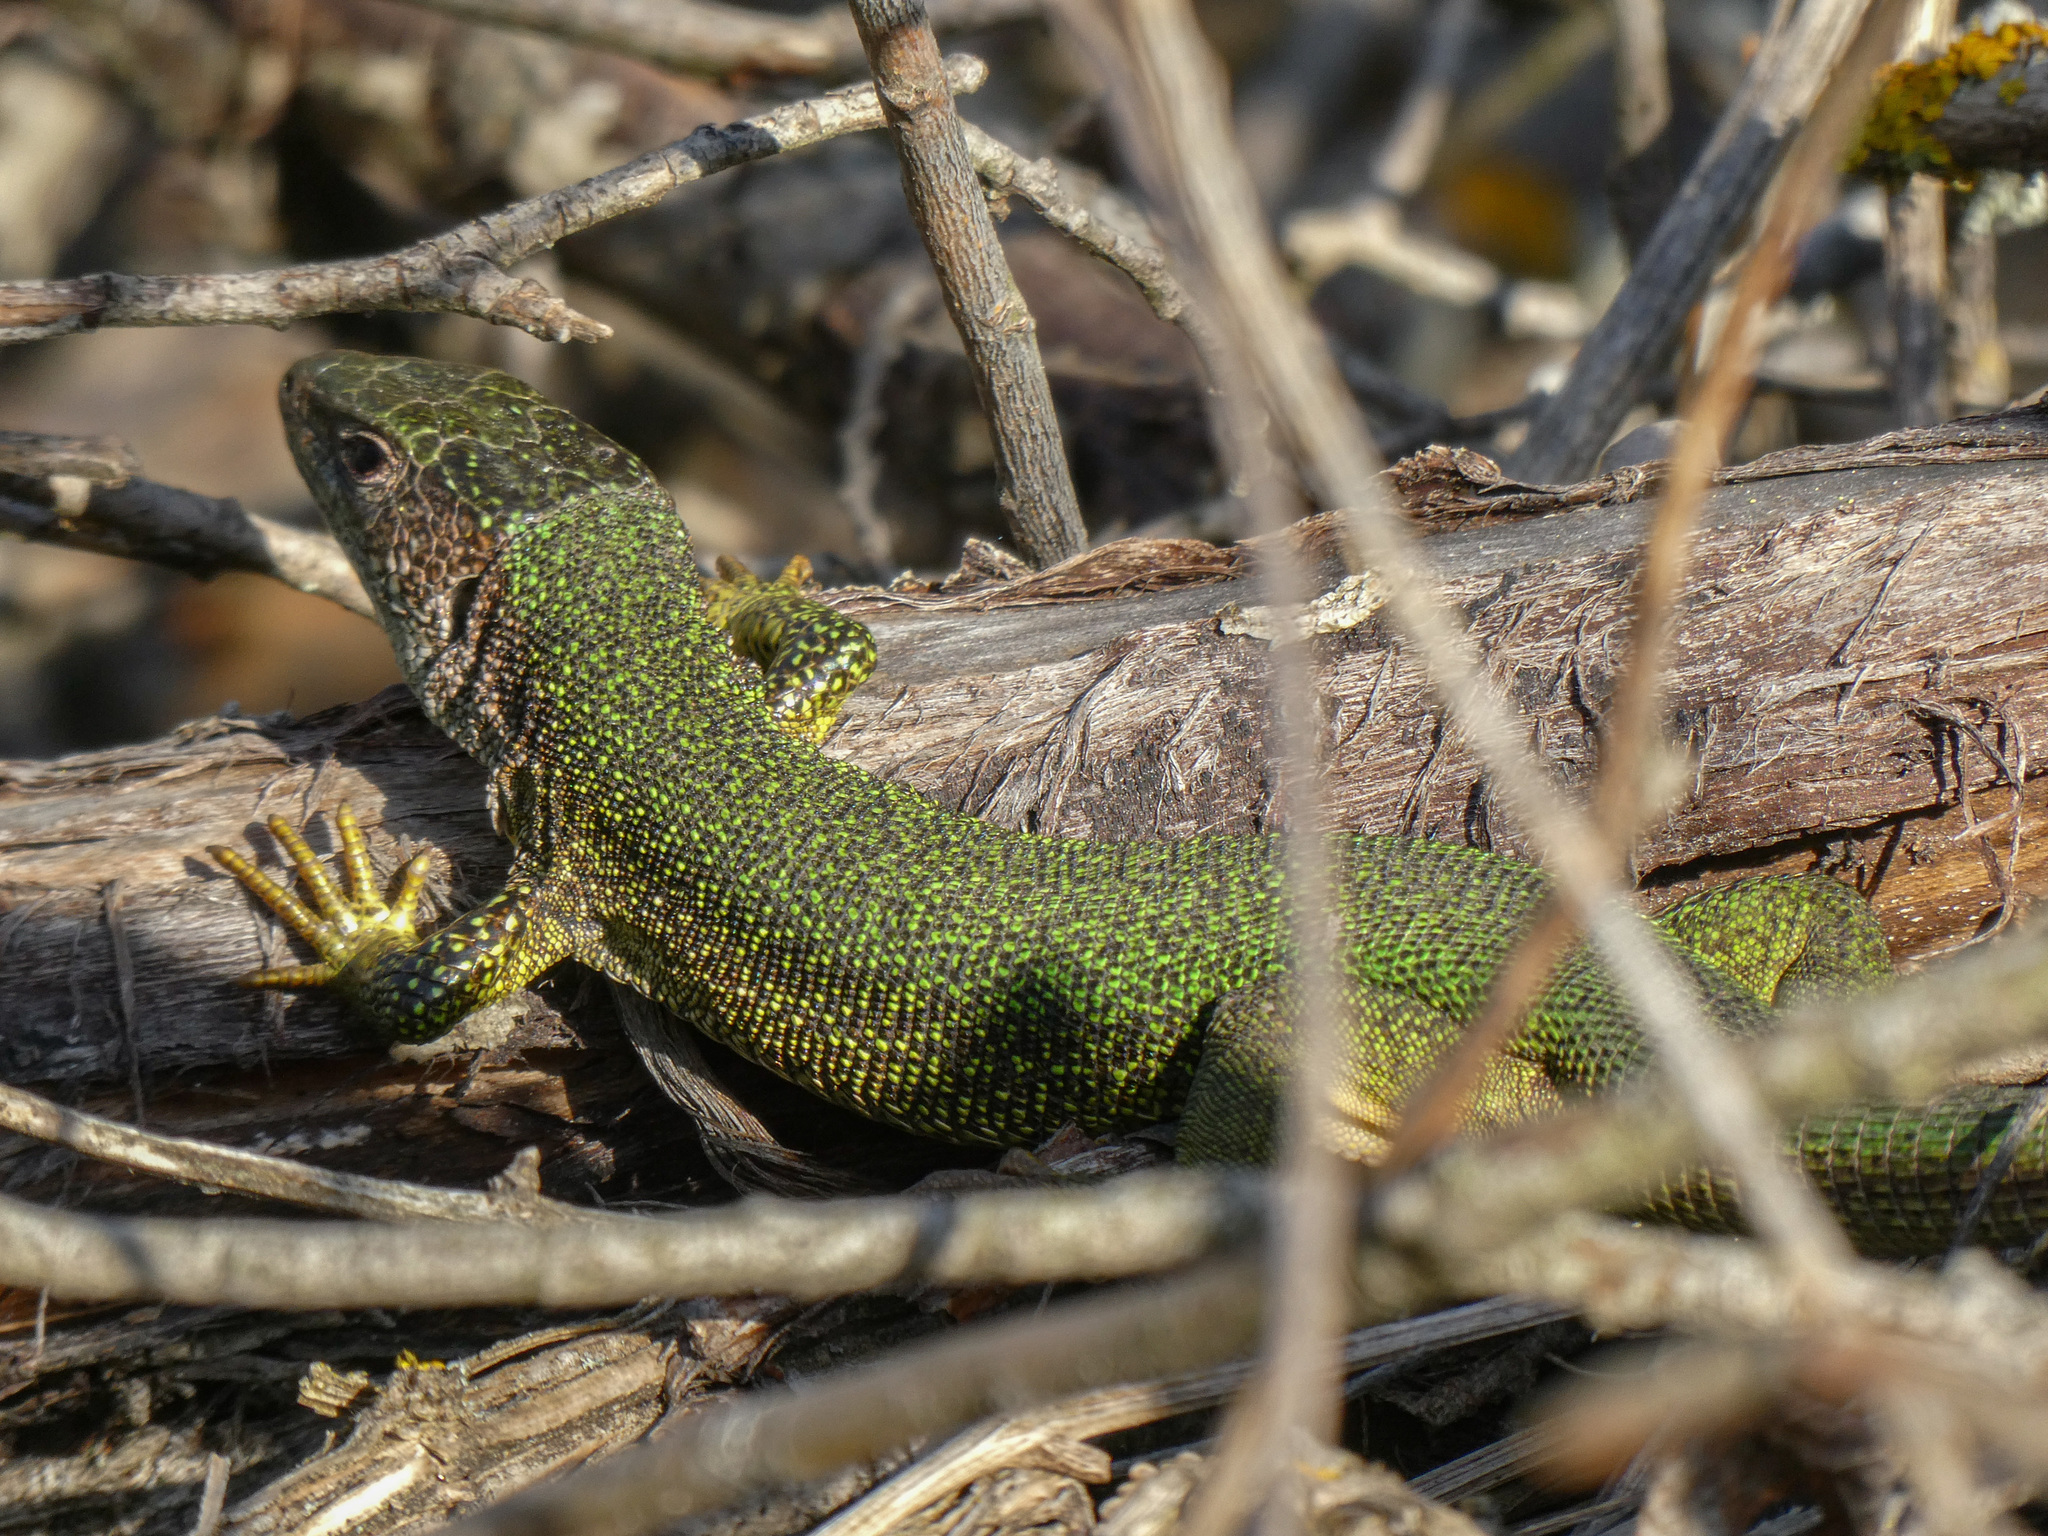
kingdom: Animalia
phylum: Chordata
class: Squamata
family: Lacertidae
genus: Lacerta
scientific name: Lacerta viridis
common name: European green lizard
